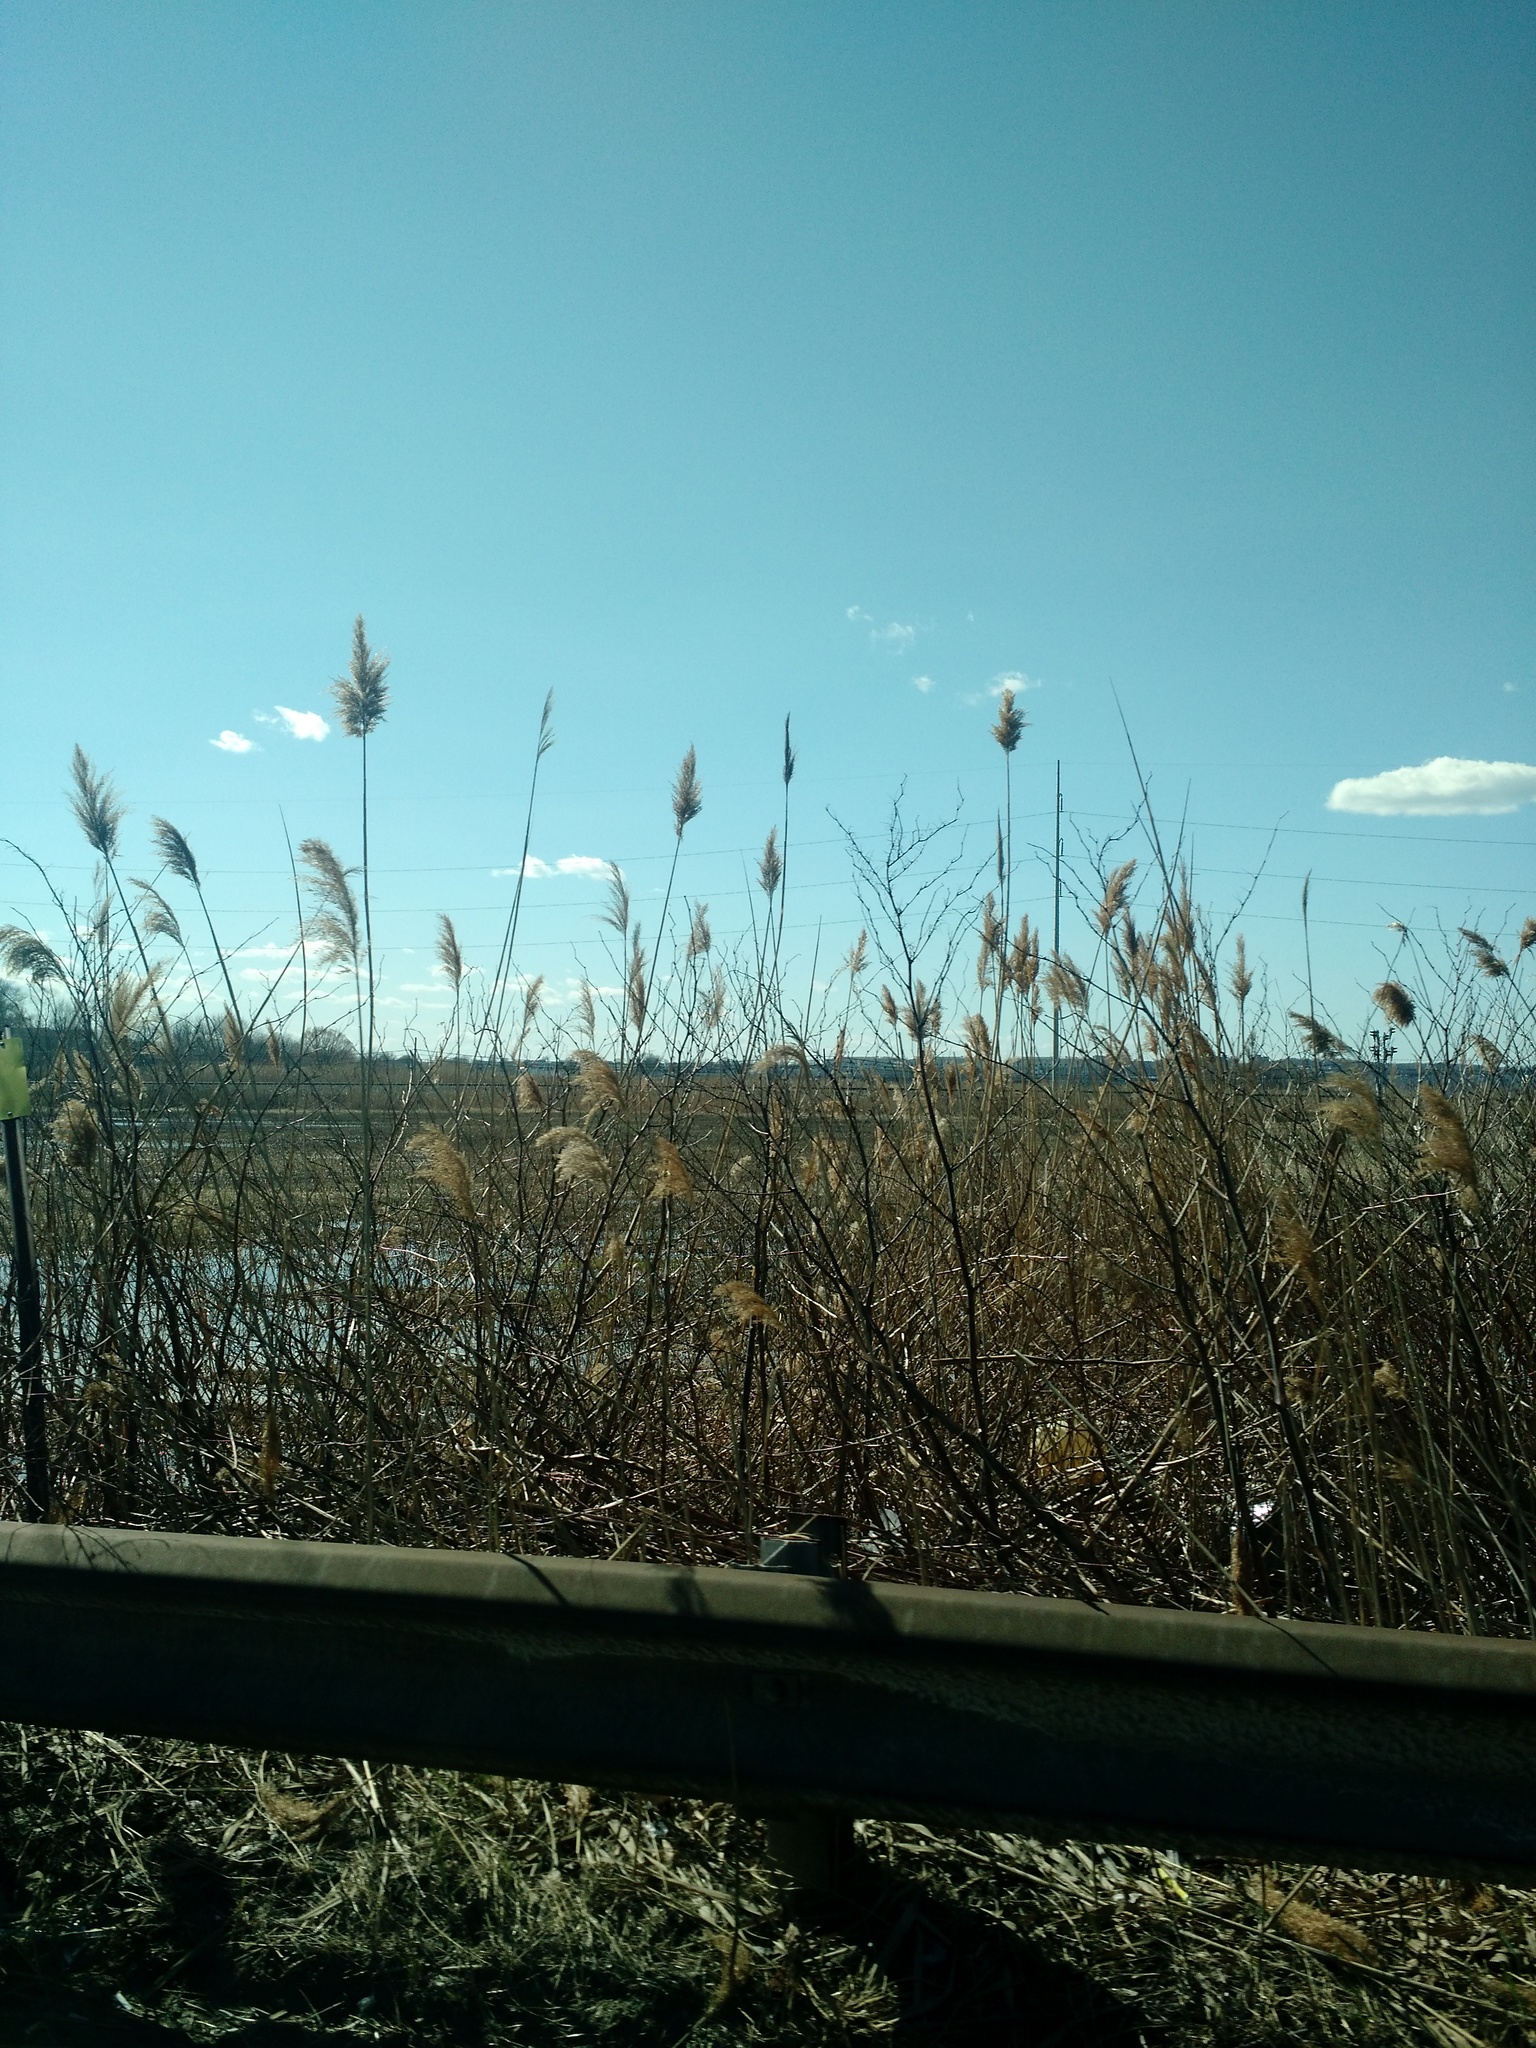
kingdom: Plantae
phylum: Tracheophyta
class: Liliopsida
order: Poales
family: Poaceae
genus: Phragmites
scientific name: Phragmites australis
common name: Common reed
